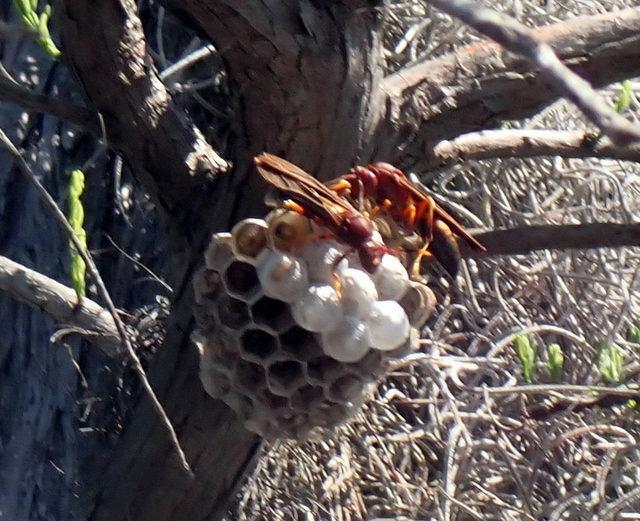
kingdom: Animalia
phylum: Arthropoda
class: Insecta
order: Hymenoptera
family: Eumenidae
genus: Polistes
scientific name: Polistes annularis
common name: Ringed paper wasp
